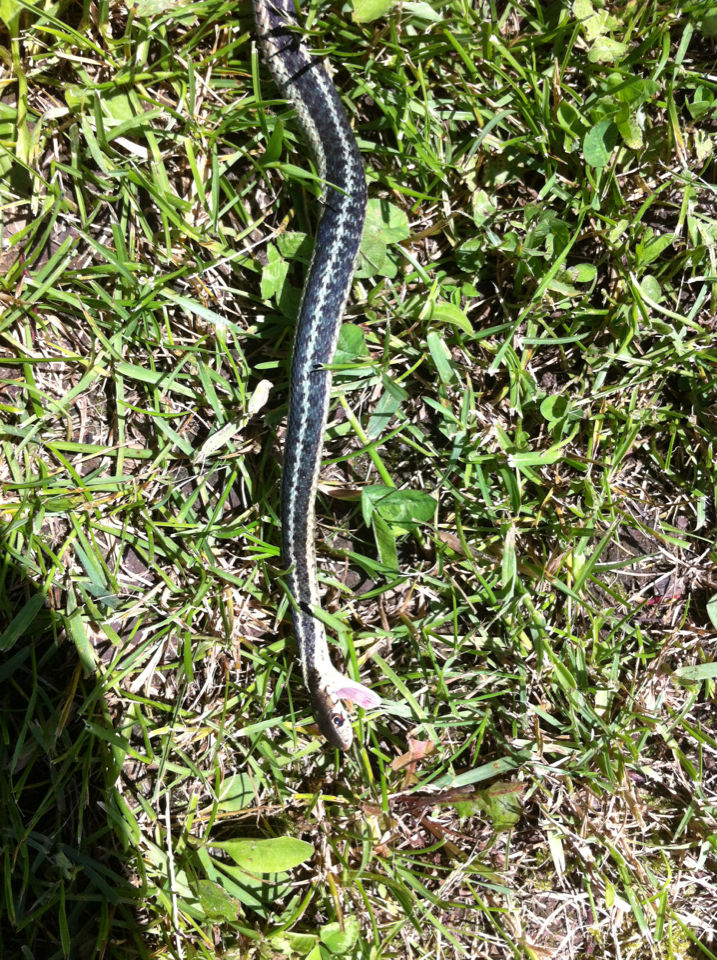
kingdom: Animalia
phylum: Chordata
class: Squamata
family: Colubridae
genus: Thamnophis
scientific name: Thamnophis sirtalis
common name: Common garter snake
